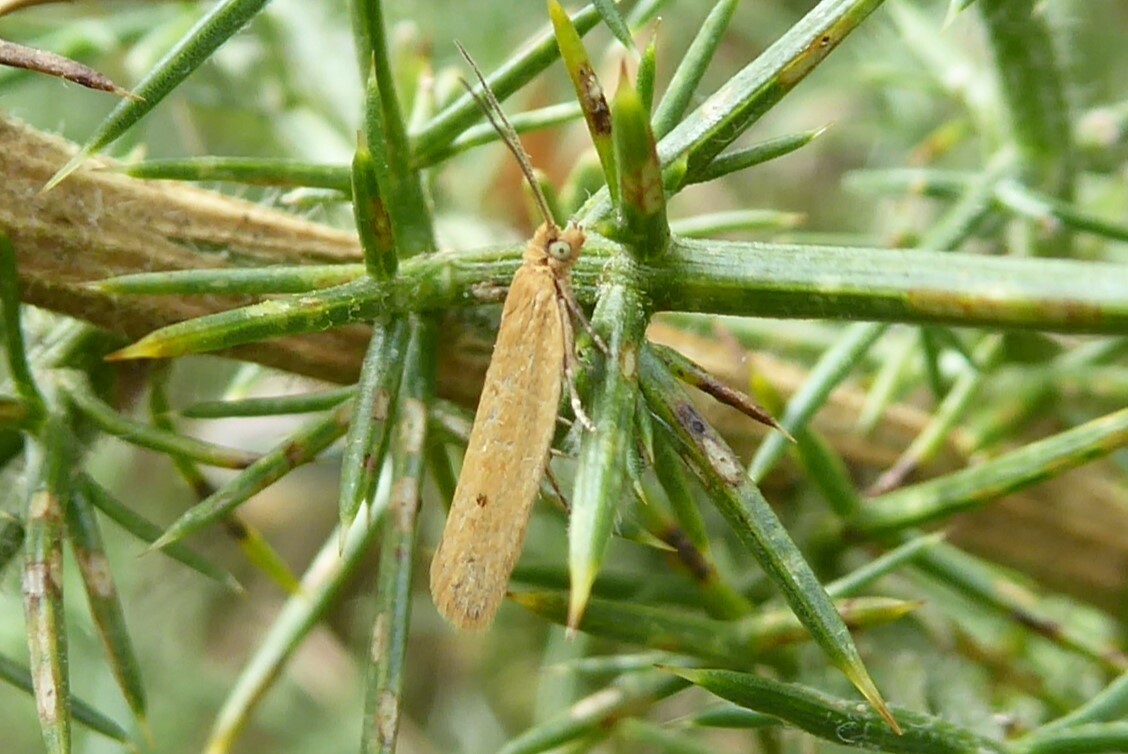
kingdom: Animalia
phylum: Arthropoda
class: Insecta
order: Lepidoptera
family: Tortricidae
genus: Epichorista
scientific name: Epichorista siriana
